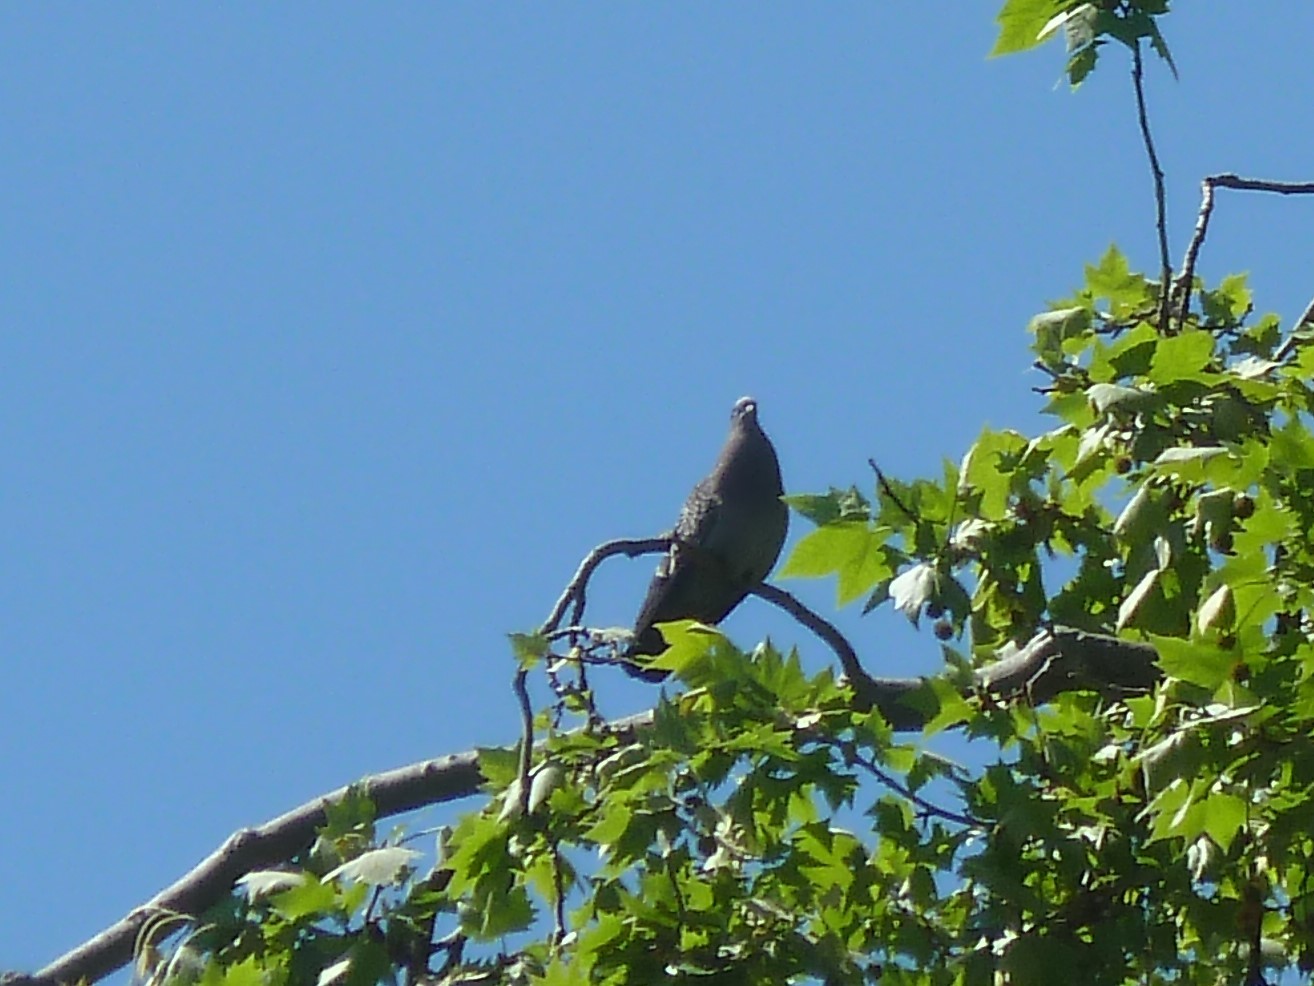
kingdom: Animalia
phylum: Chordata
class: Aves
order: Columbiformes
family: Columbidae
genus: Patagioenas
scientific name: Patagioenas maculosa
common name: Spot-winged pigeon
